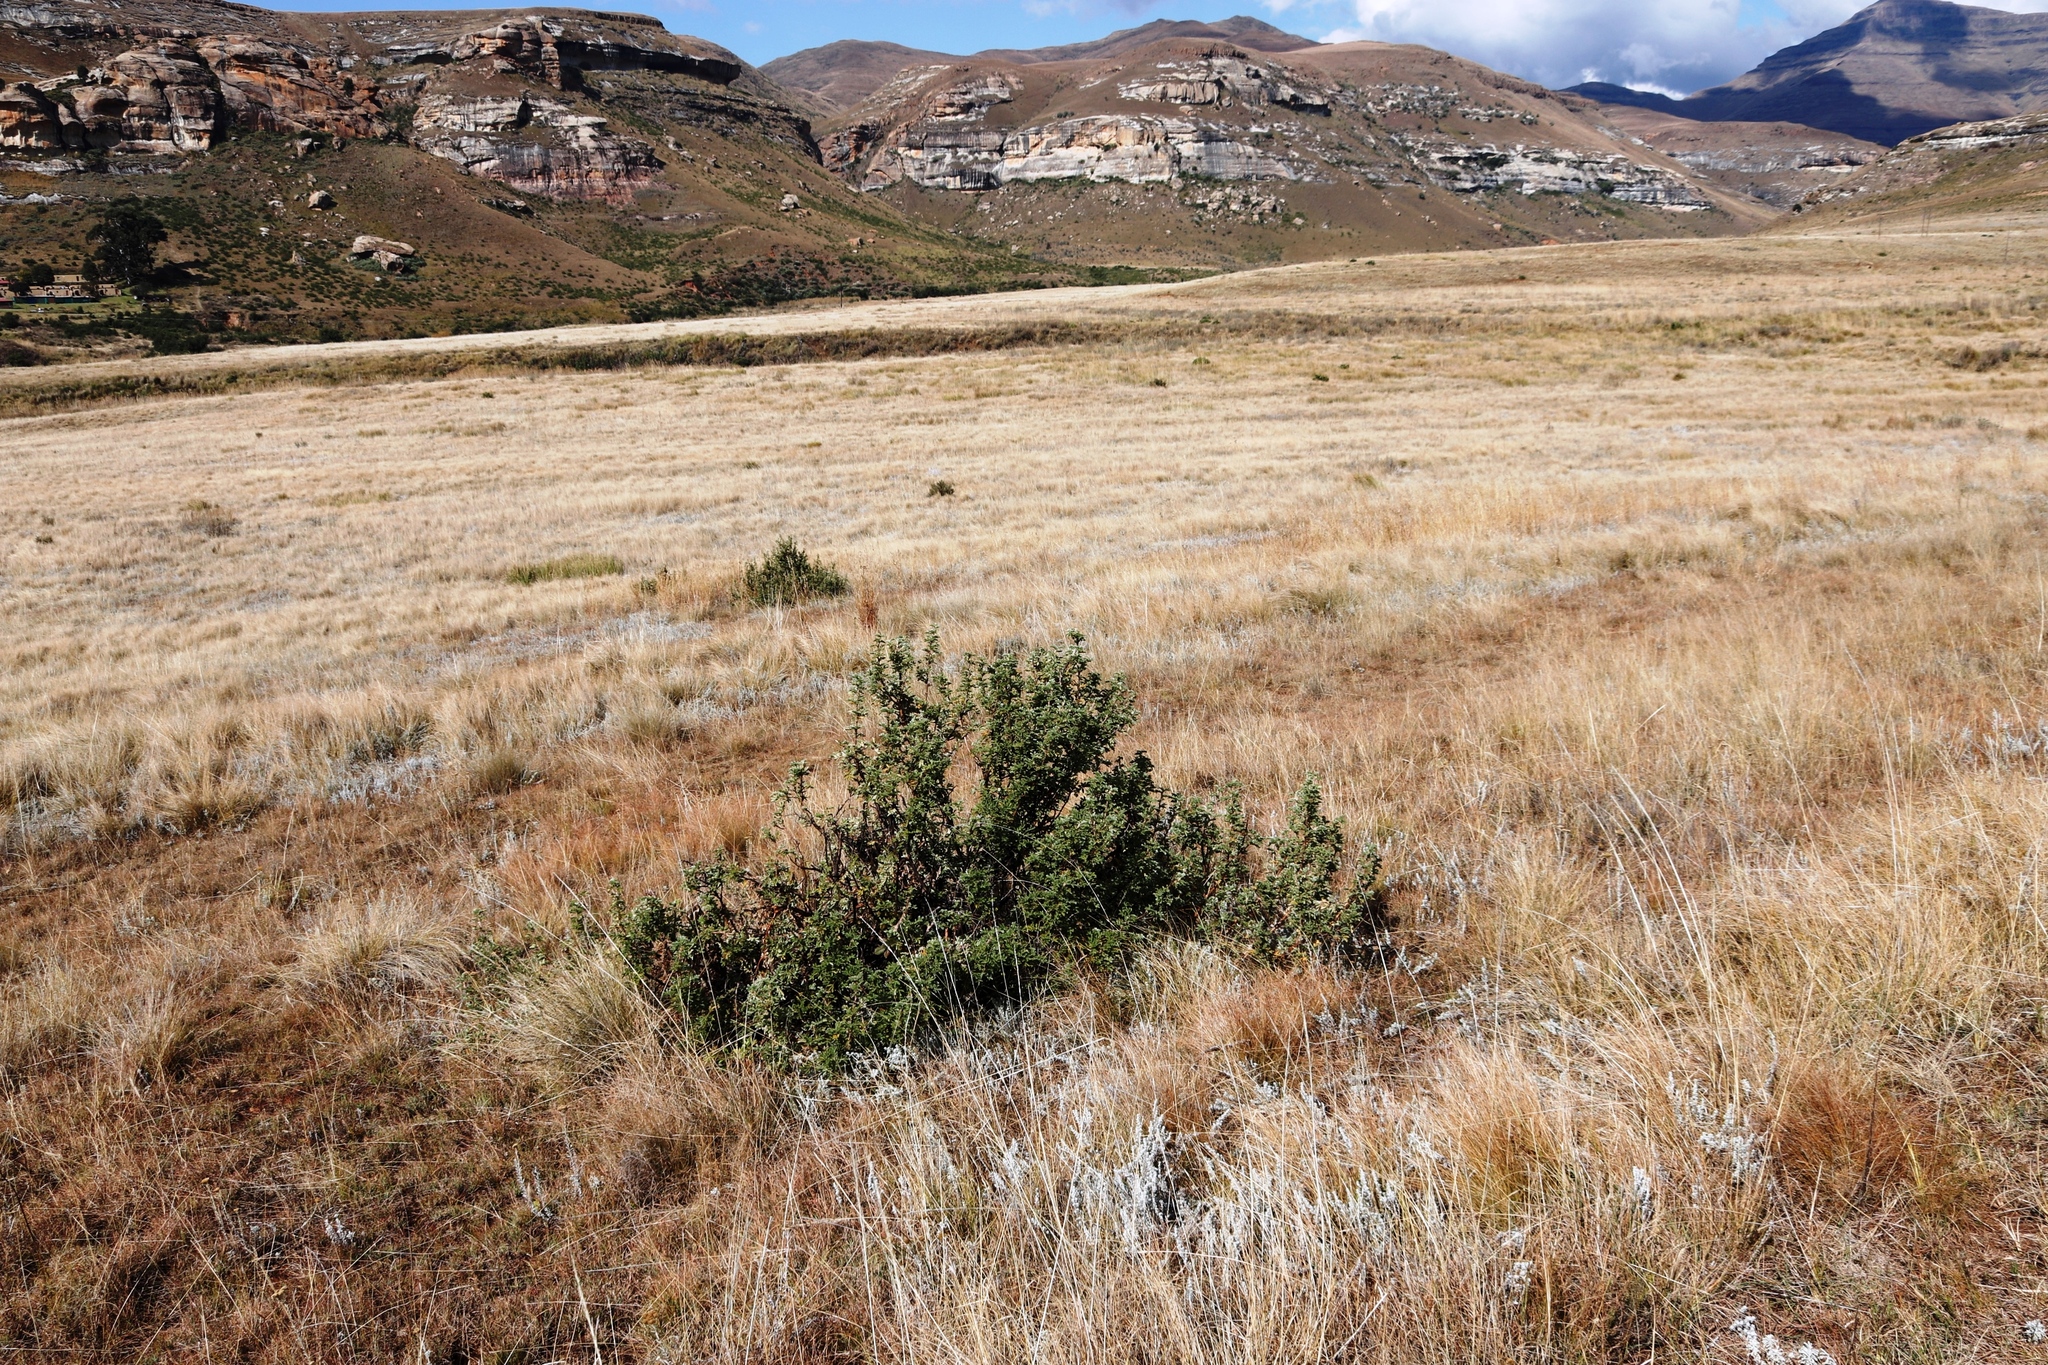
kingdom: Plantae
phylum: Tracheophyta
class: Magnoliopsida
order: Rosales
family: Rosaceae
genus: Leucosidea
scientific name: Leucosidea sericea
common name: Oldwood
